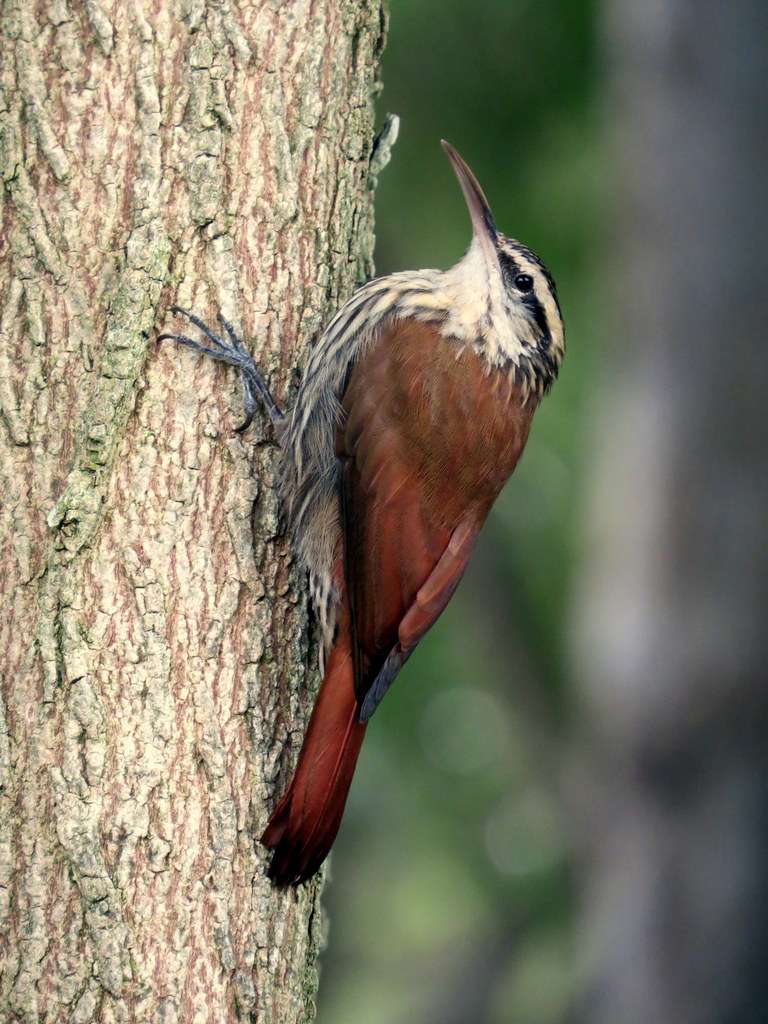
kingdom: Animalia
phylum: Chordata
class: Aves
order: Passeriformes
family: Furnariidae
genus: Lepidocolaptes
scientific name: Lepidocolaptes angustirostris
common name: Narrow-billed woodcreeper
